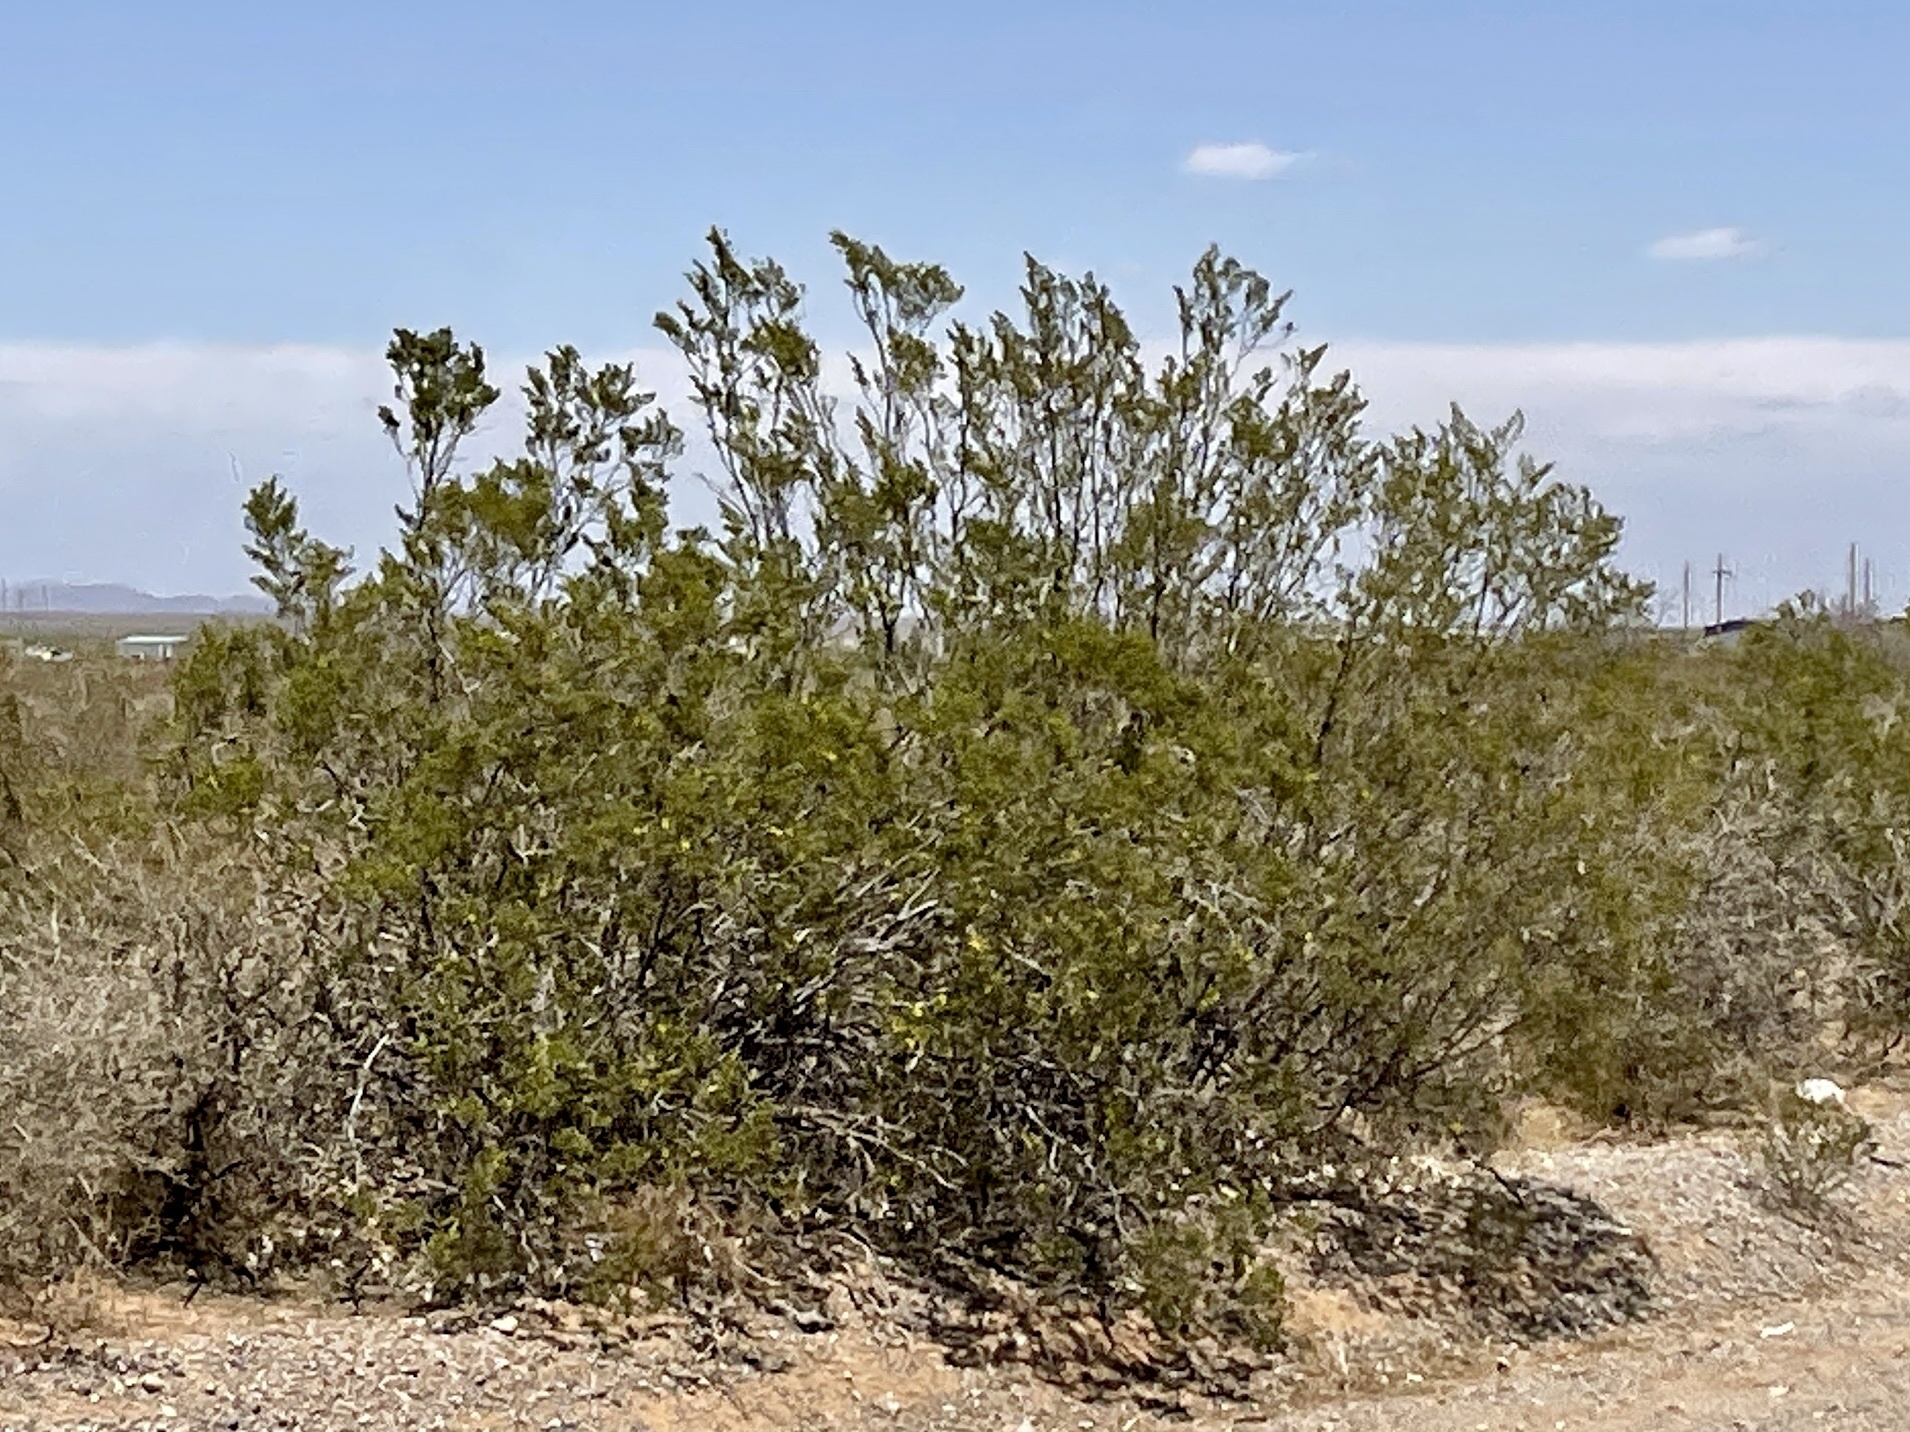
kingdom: Plantae
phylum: Tracheophyta
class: Magnoliopsida
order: Zygophyllales
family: Zygophyllaceae
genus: Larrea
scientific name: Larrea tridentata
